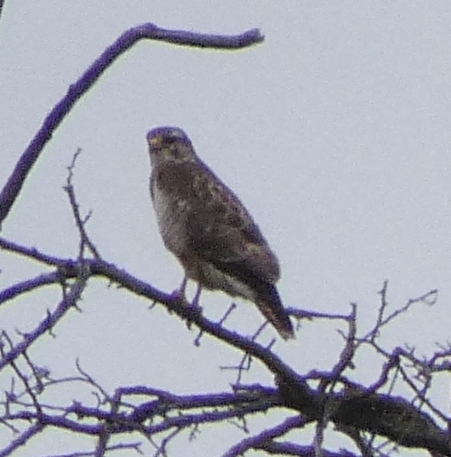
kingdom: Animalia
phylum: Chordata
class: Aves
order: Accipitriformes
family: Accipitridae
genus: Buteo
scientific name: Buteo buteo
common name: Common buzzard
